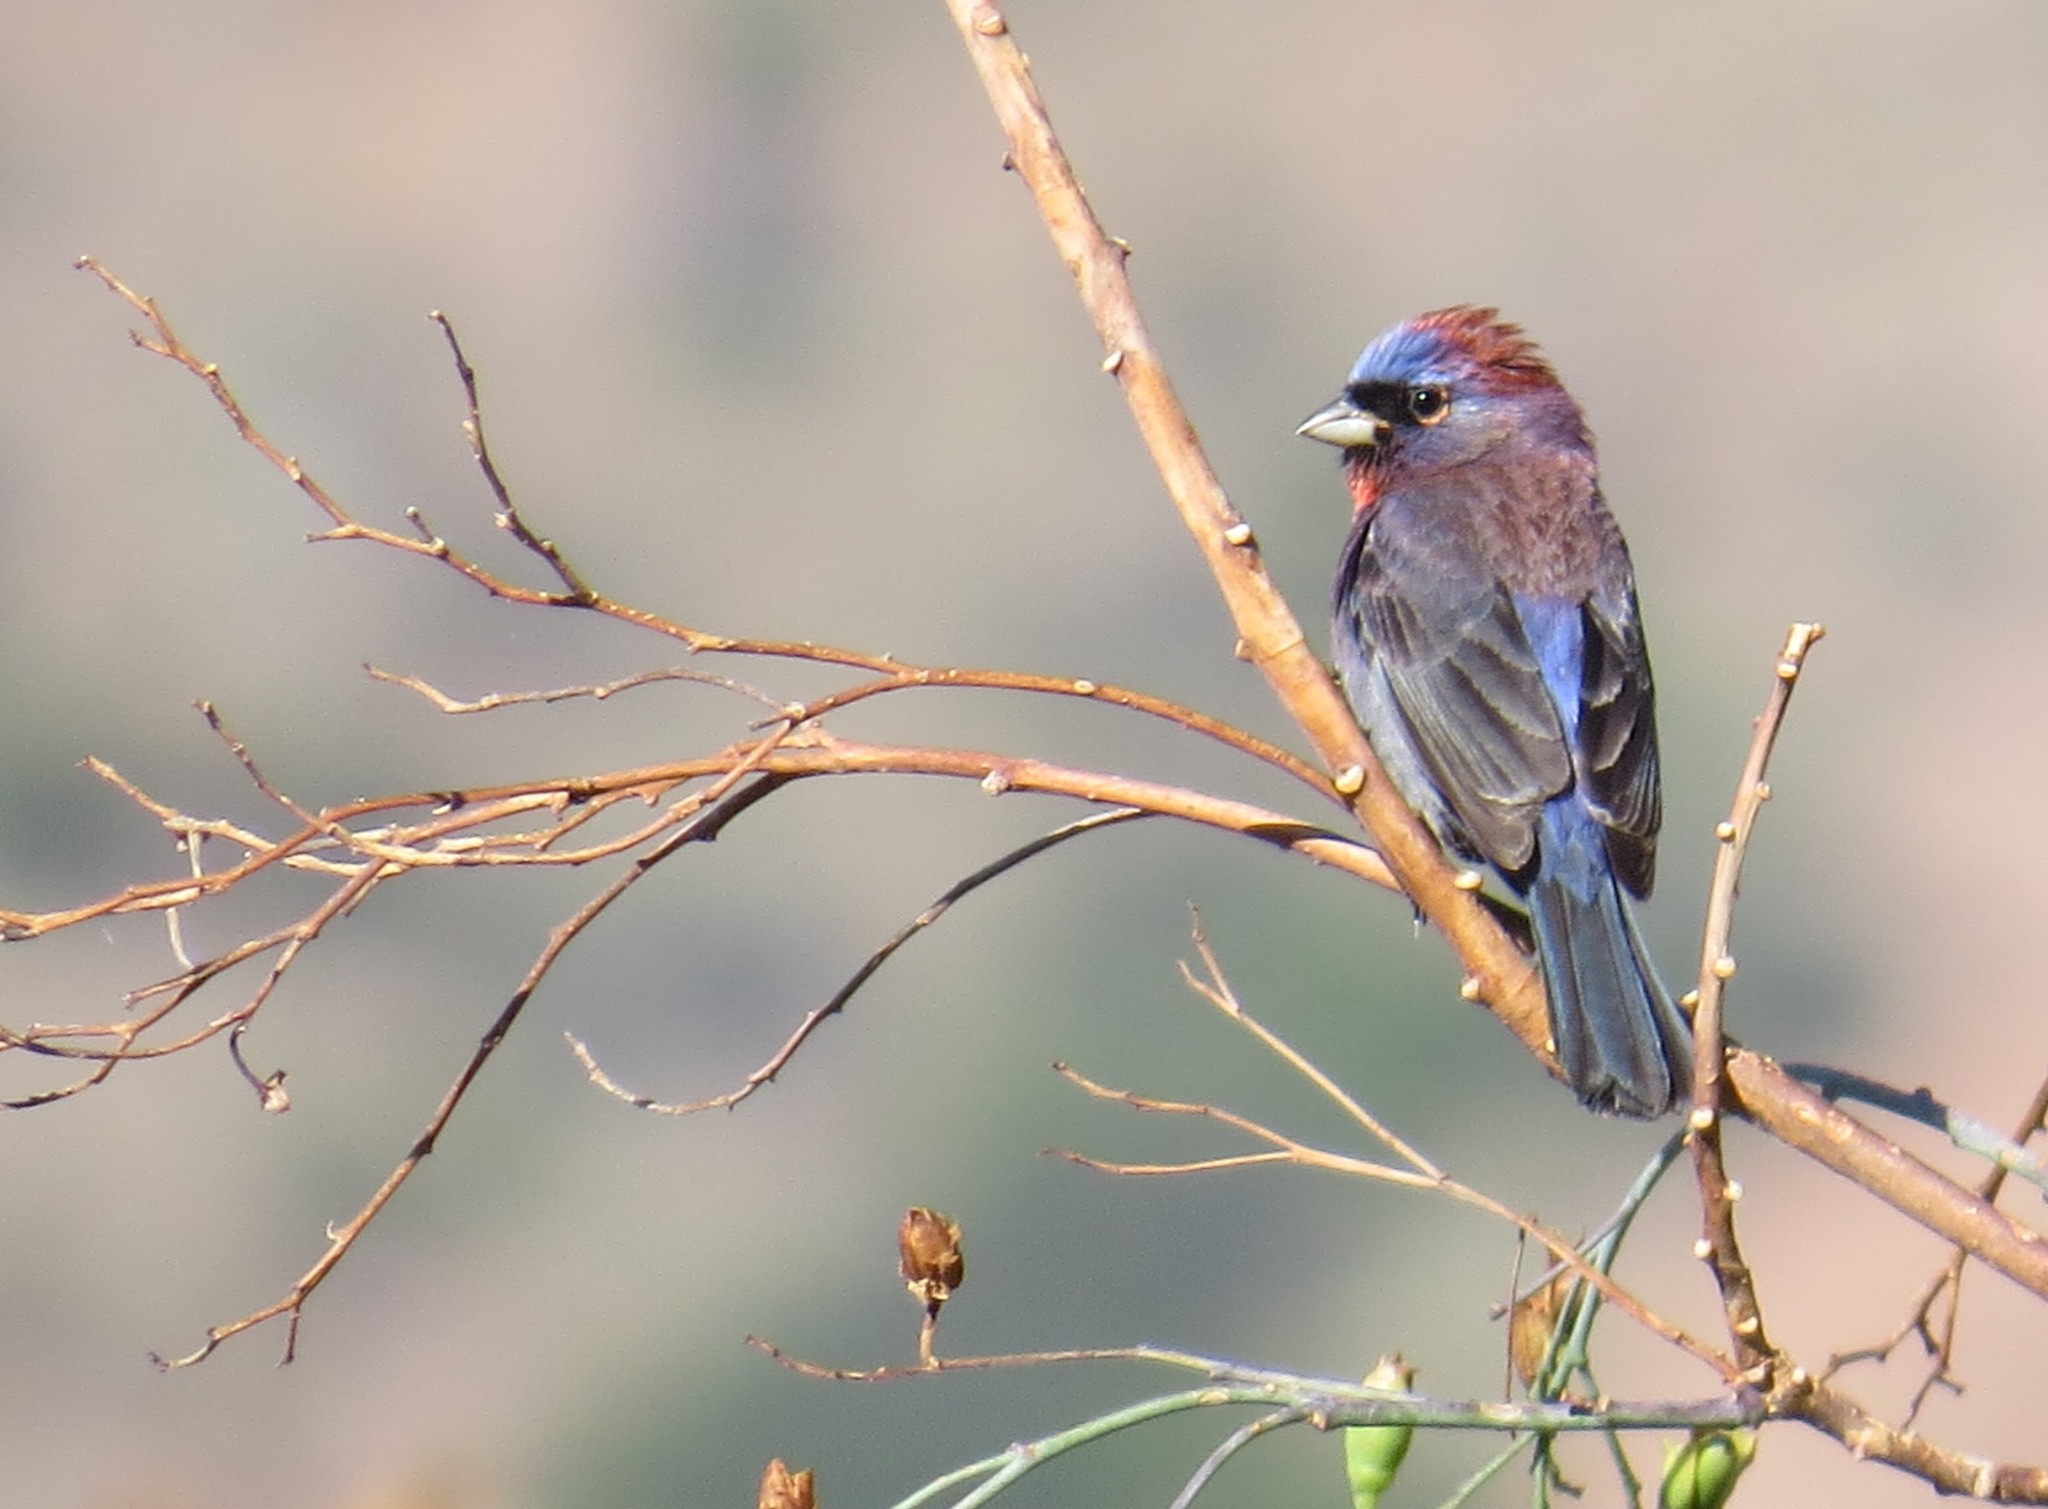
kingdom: Animalia
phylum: Chordata
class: Aves
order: Passeriformes
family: Cardinalidae
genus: Passerina
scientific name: Passerina versicolor
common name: Varied bunting
